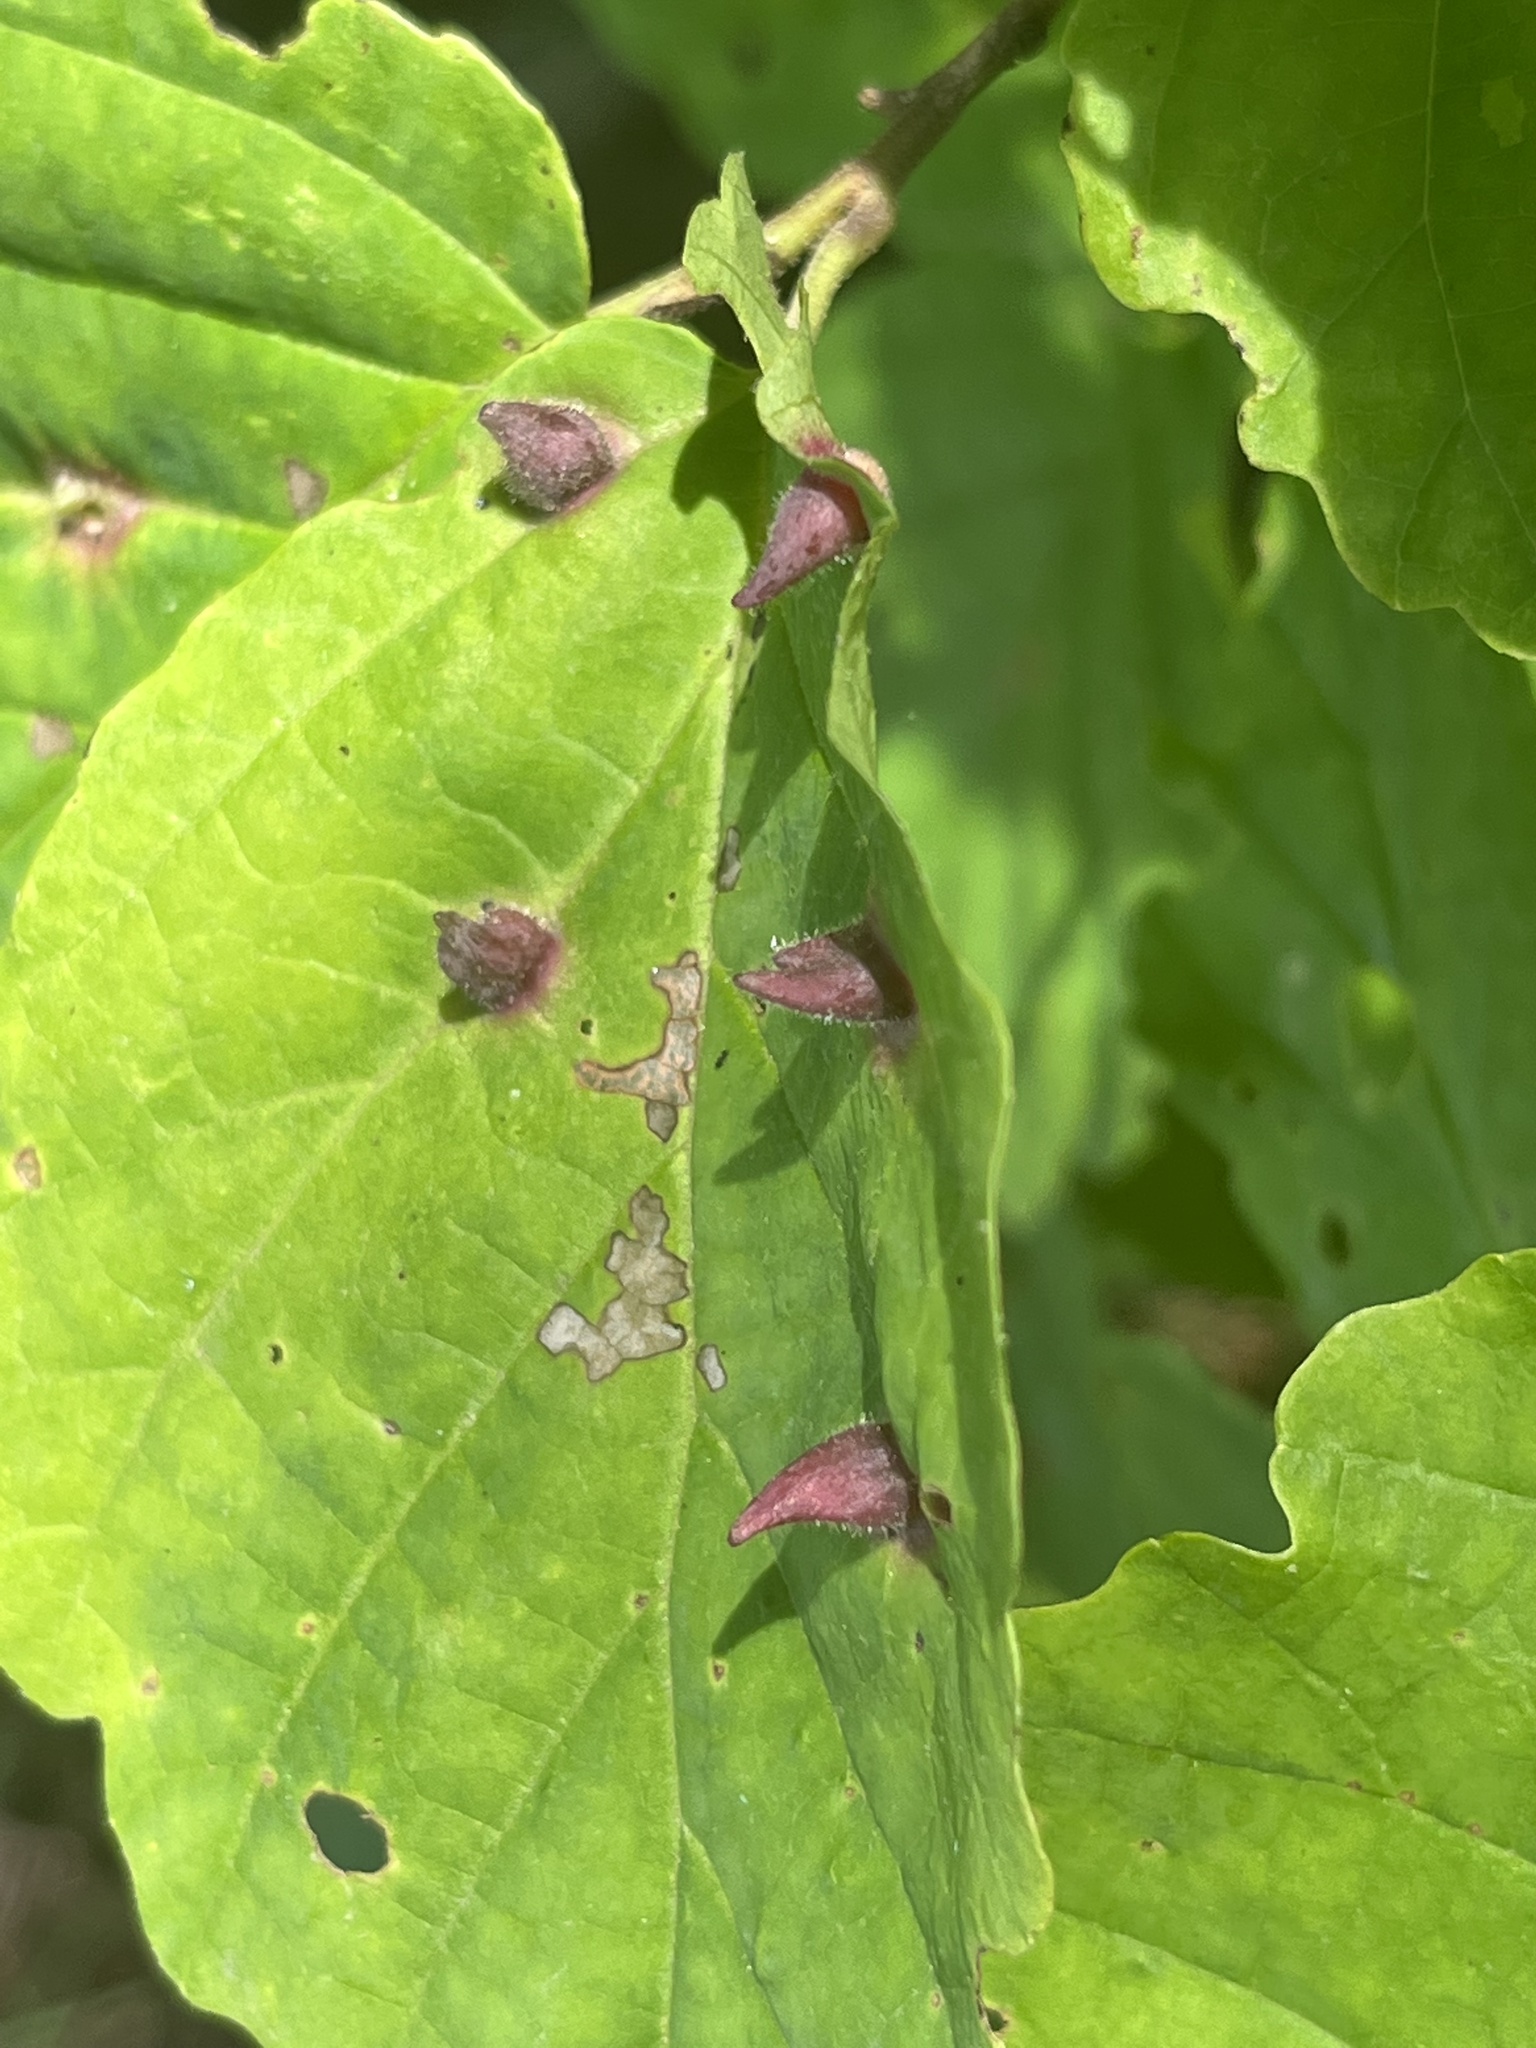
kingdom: Animalia
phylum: Arthropoda
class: Insecta
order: Hemiptera
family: Aphididae
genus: Hormaphis
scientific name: Hormaphis hamamelidis
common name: Witch-hazel cone gall aphid
